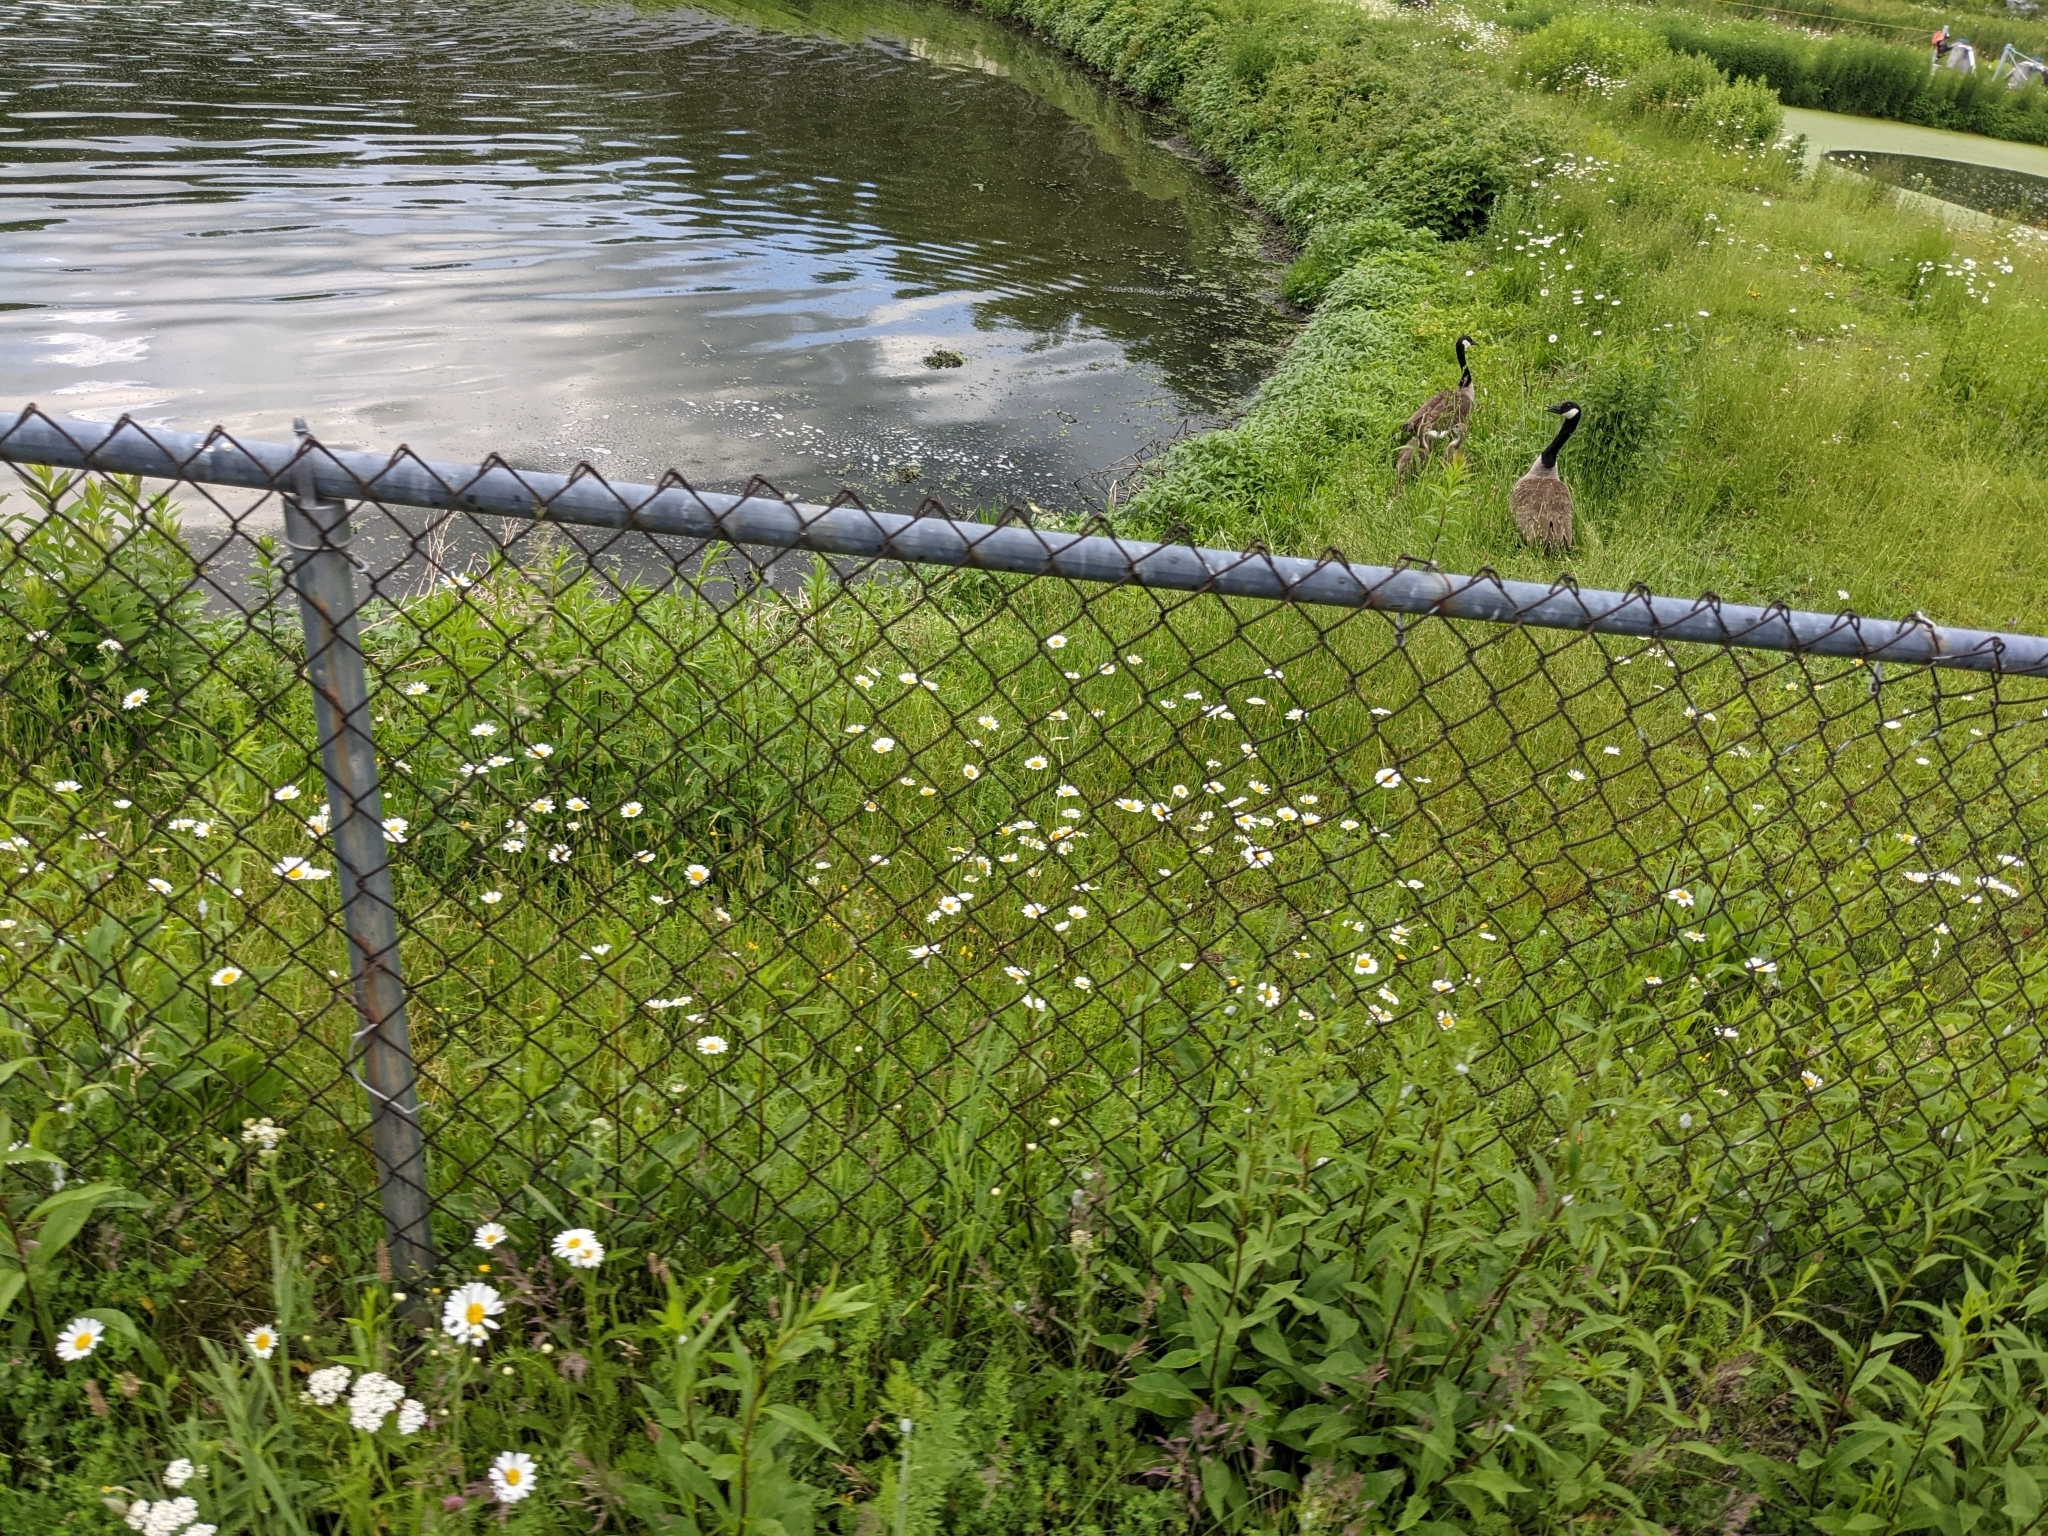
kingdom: Animalia
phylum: Chordata
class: Aves
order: Anseriformes
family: Anatidae
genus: Branta
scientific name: Branta canadensis
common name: Canada goose
